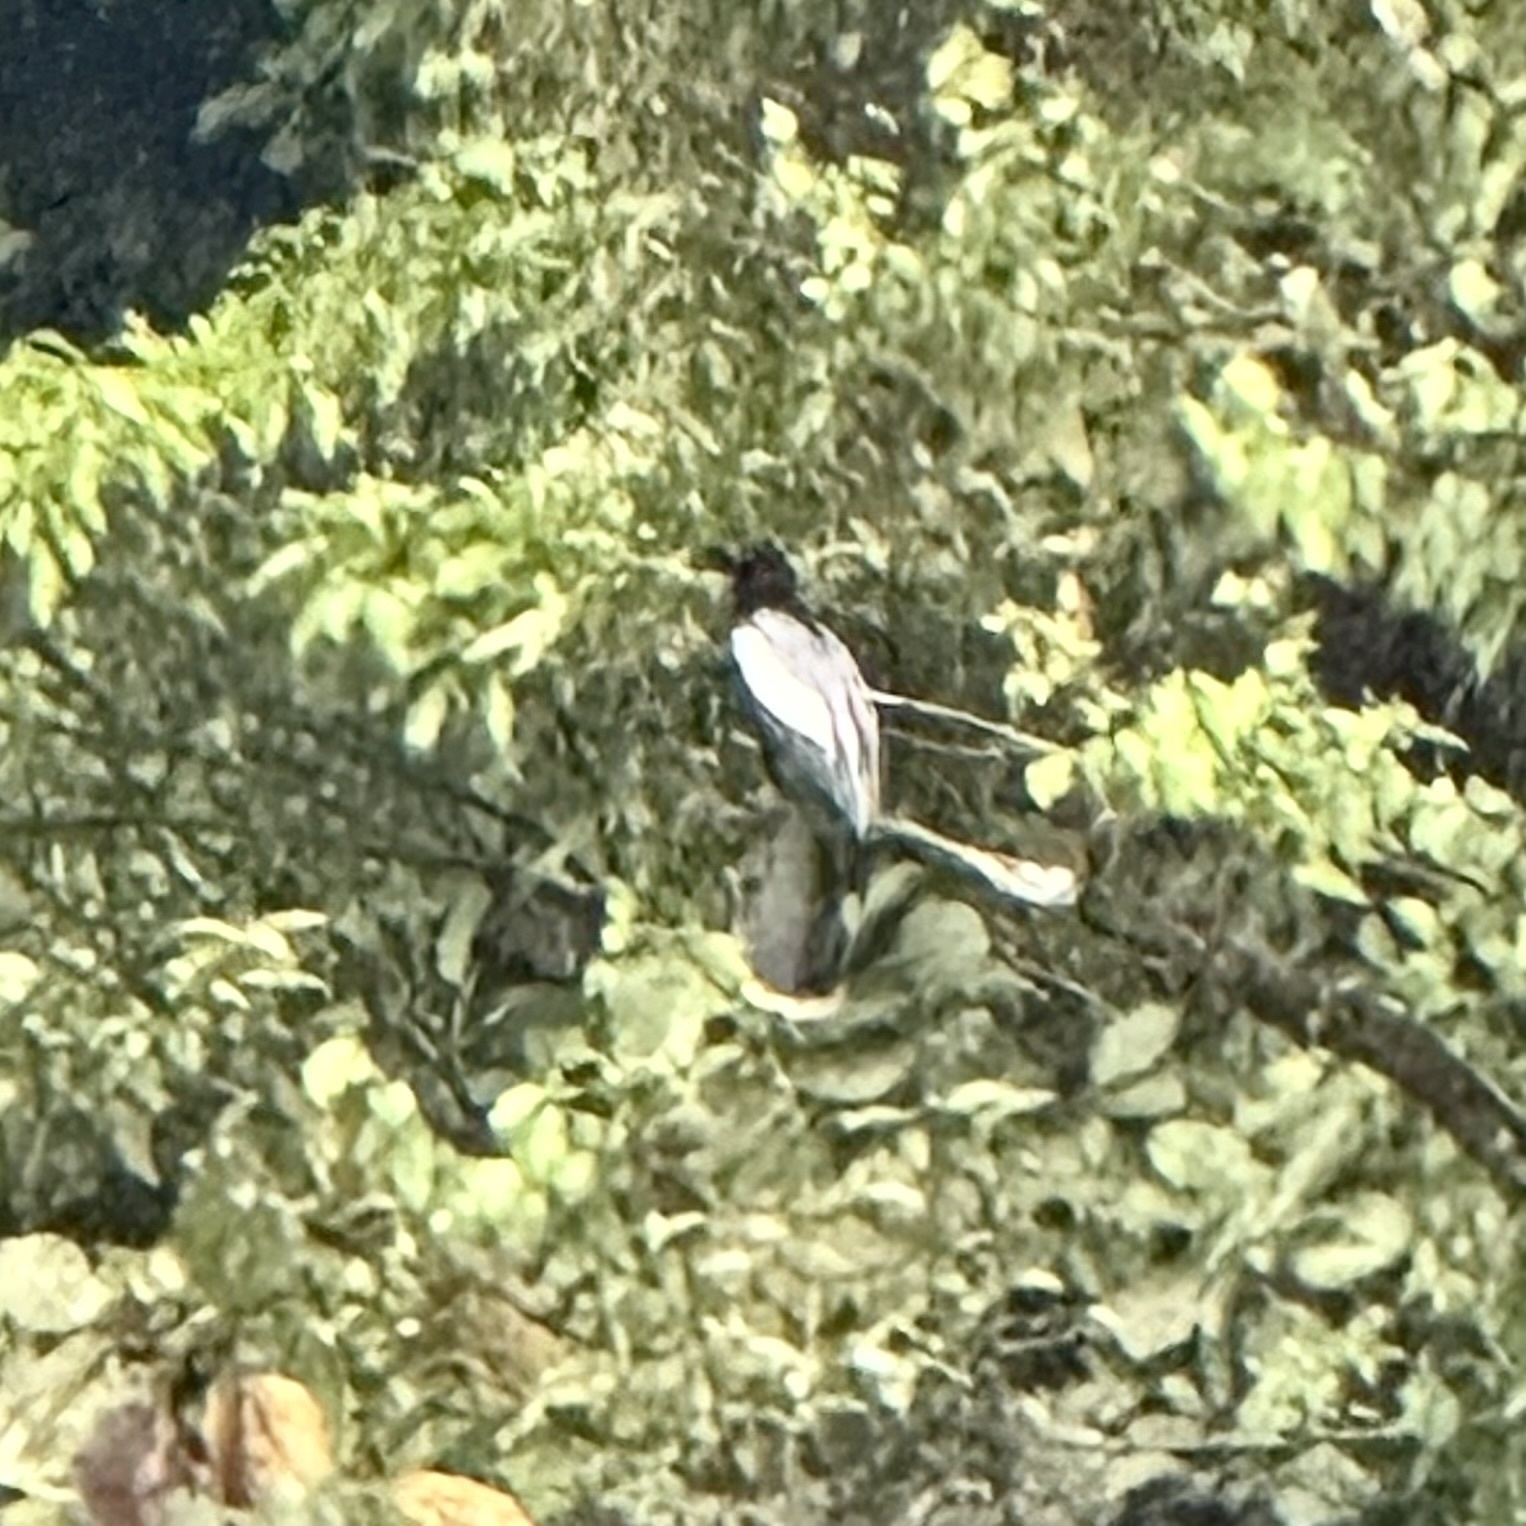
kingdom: Animalia
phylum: Chordata
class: Aves
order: Suliformes
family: Anhingidae
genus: Anhinga
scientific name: Anhinga anhinga
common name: Anhinga
